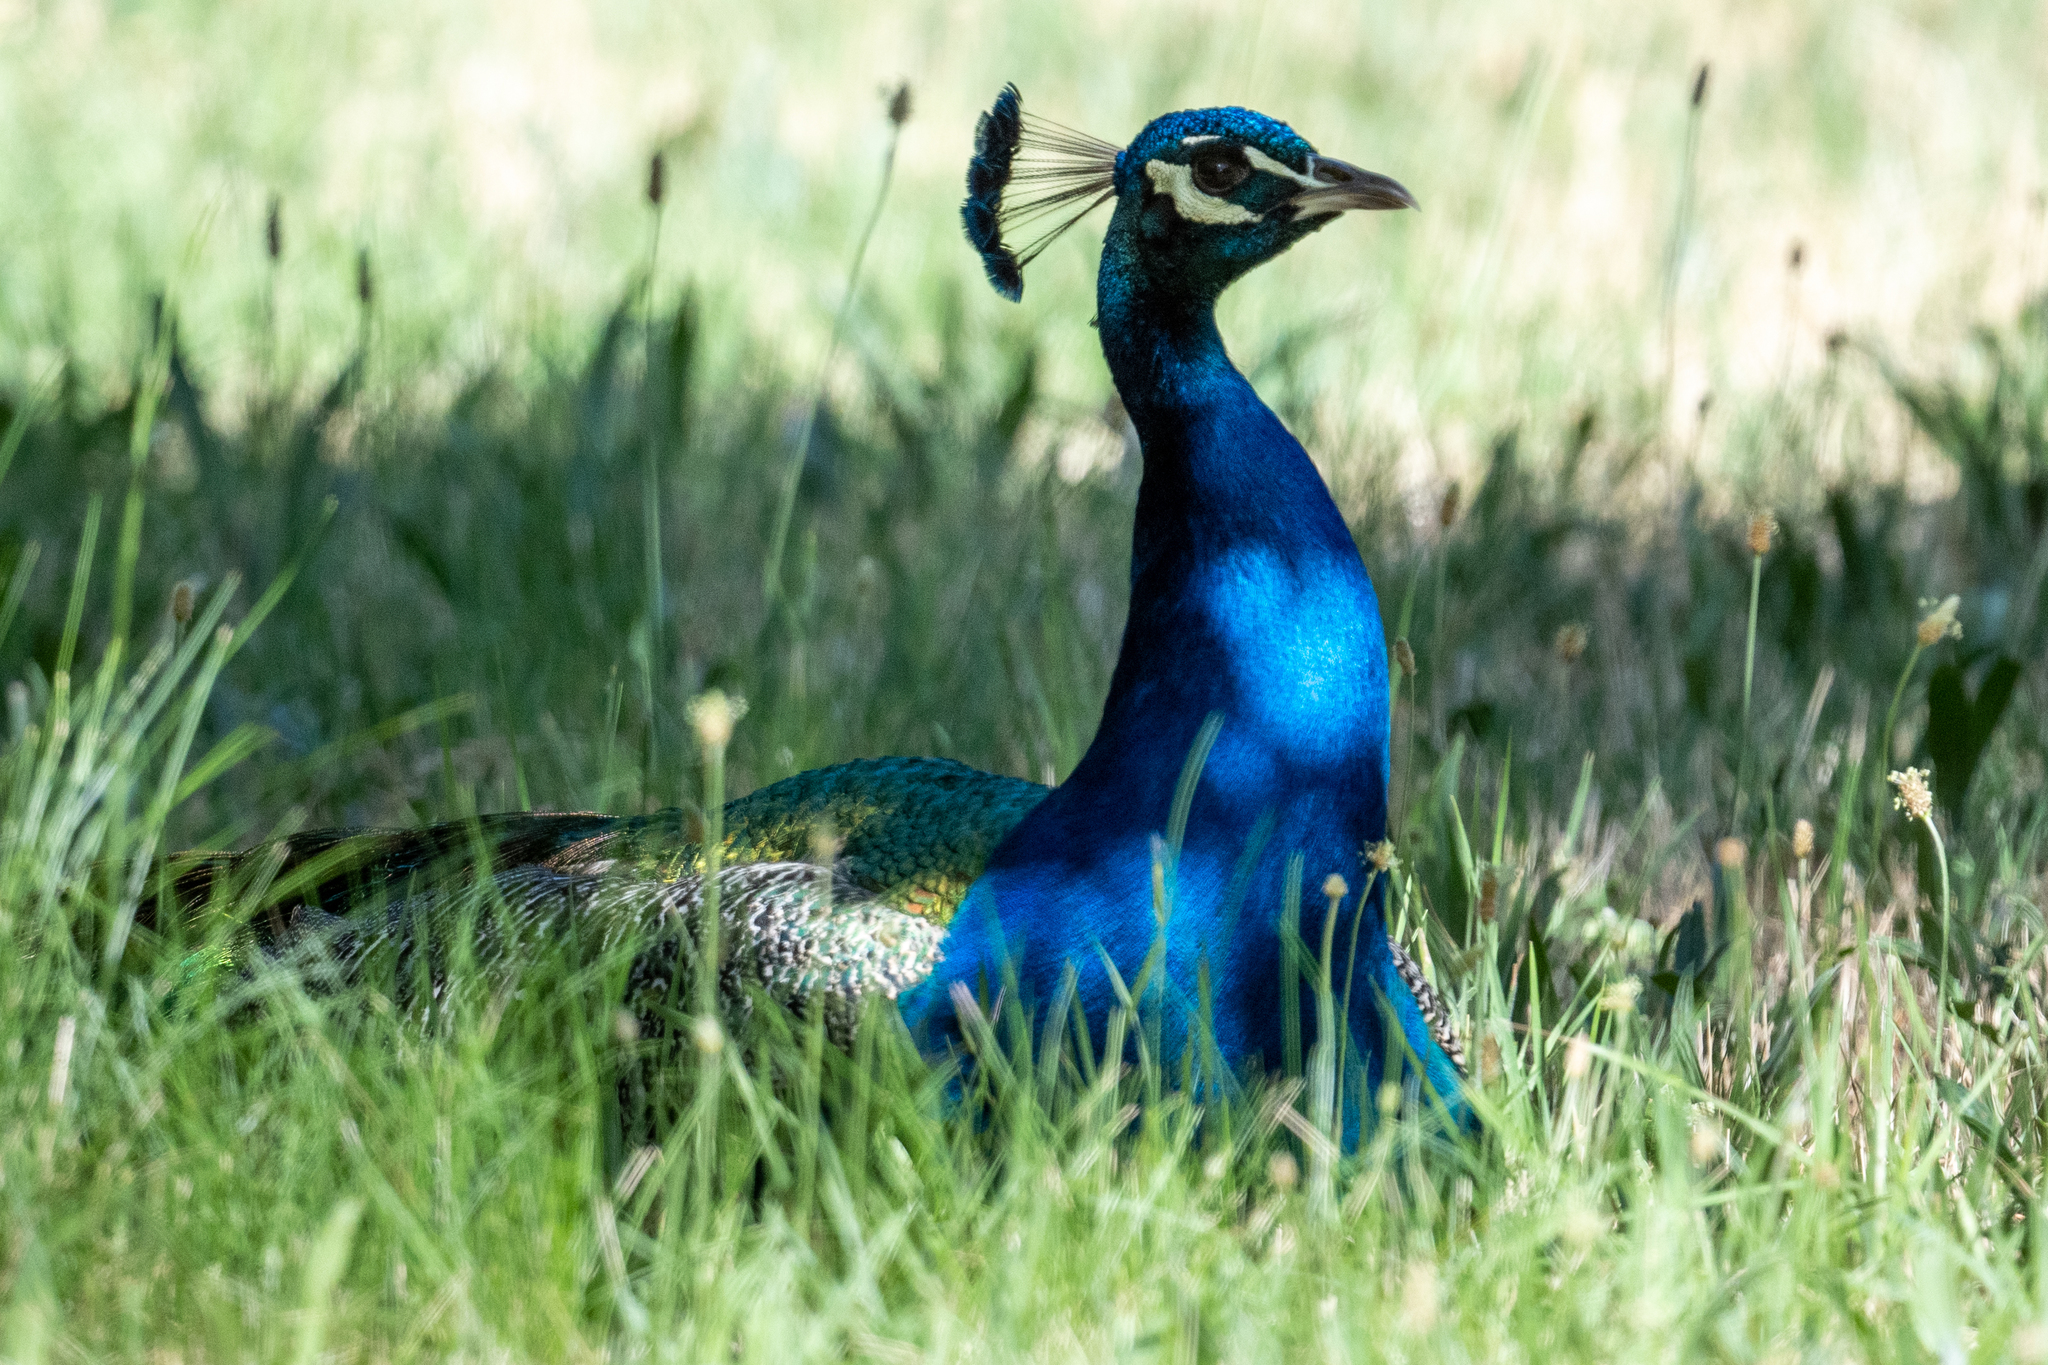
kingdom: Animalia
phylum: Chordata
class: Aves
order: Galliformes
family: Phasianidae
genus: Pavo
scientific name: Pavo cristatus
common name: Indian peafowl
